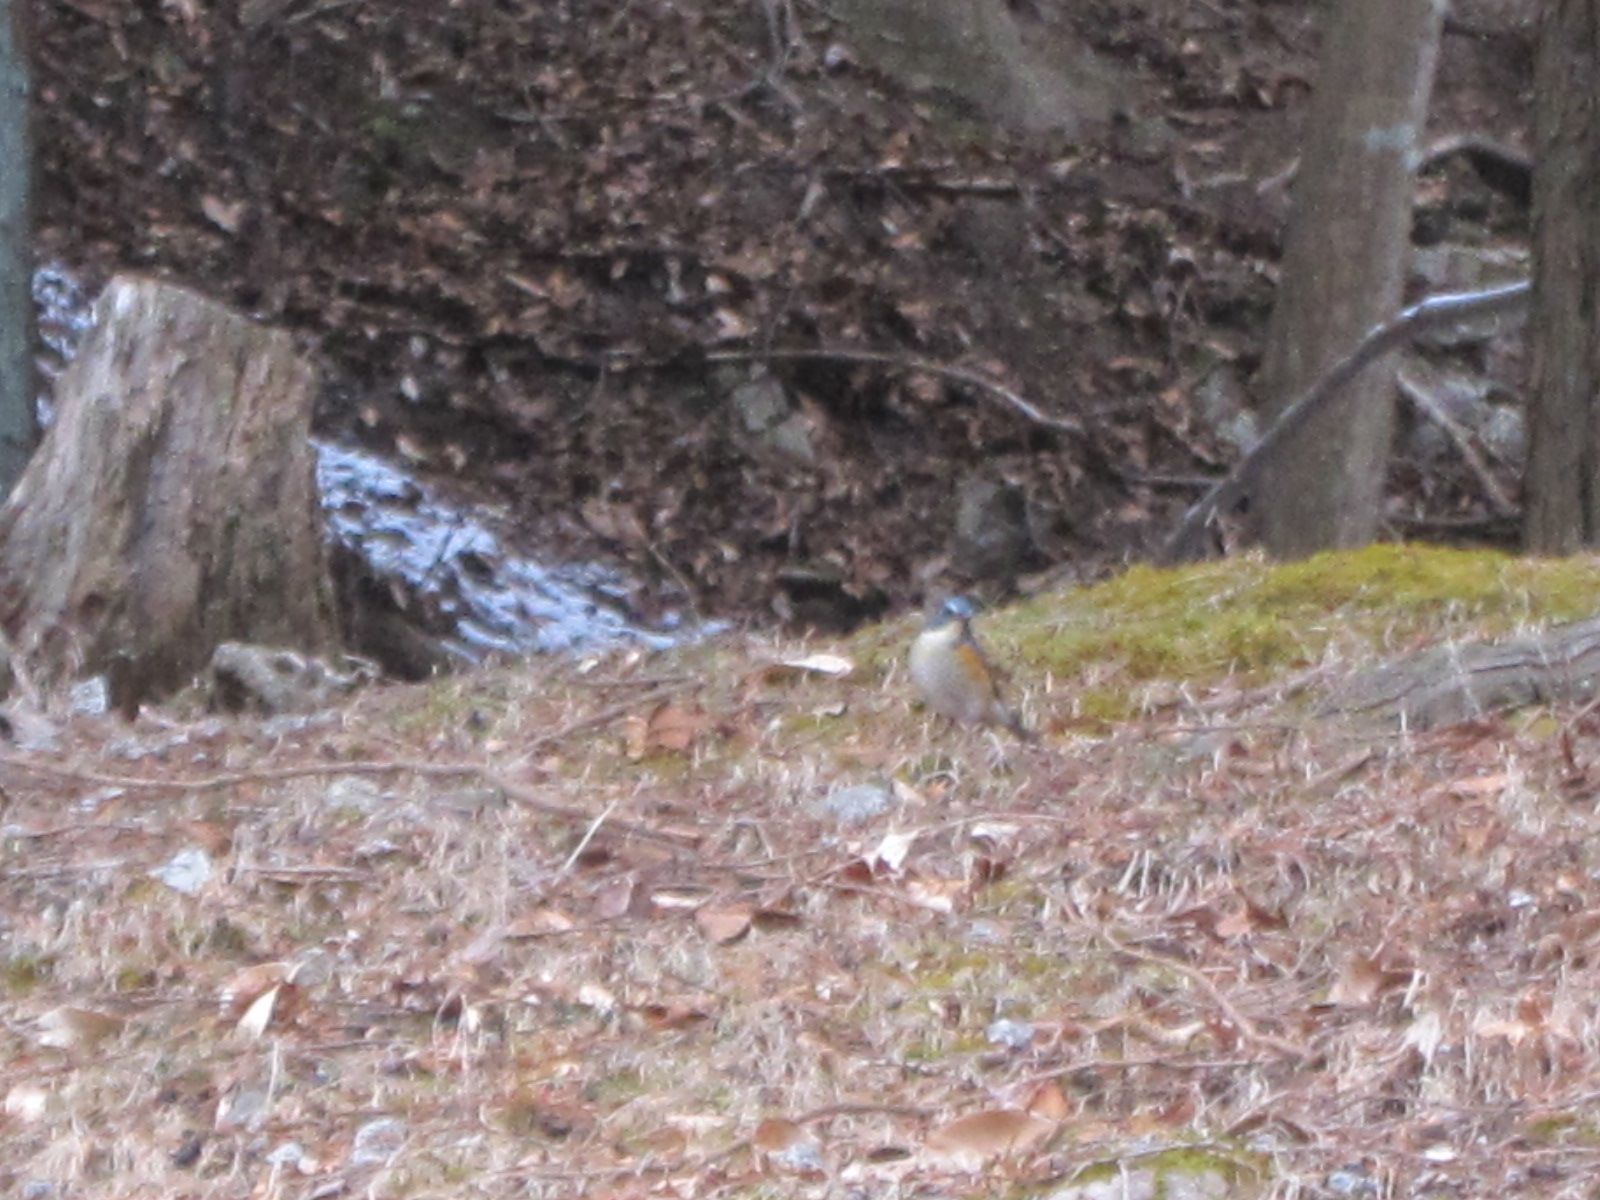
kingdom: Animalia
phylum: Chordata
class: Aves
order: Passeriformes
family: Muscicapidae
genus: Tarsiger
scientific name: Tarsiger cyanurus
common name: Red-flanked bluetail
